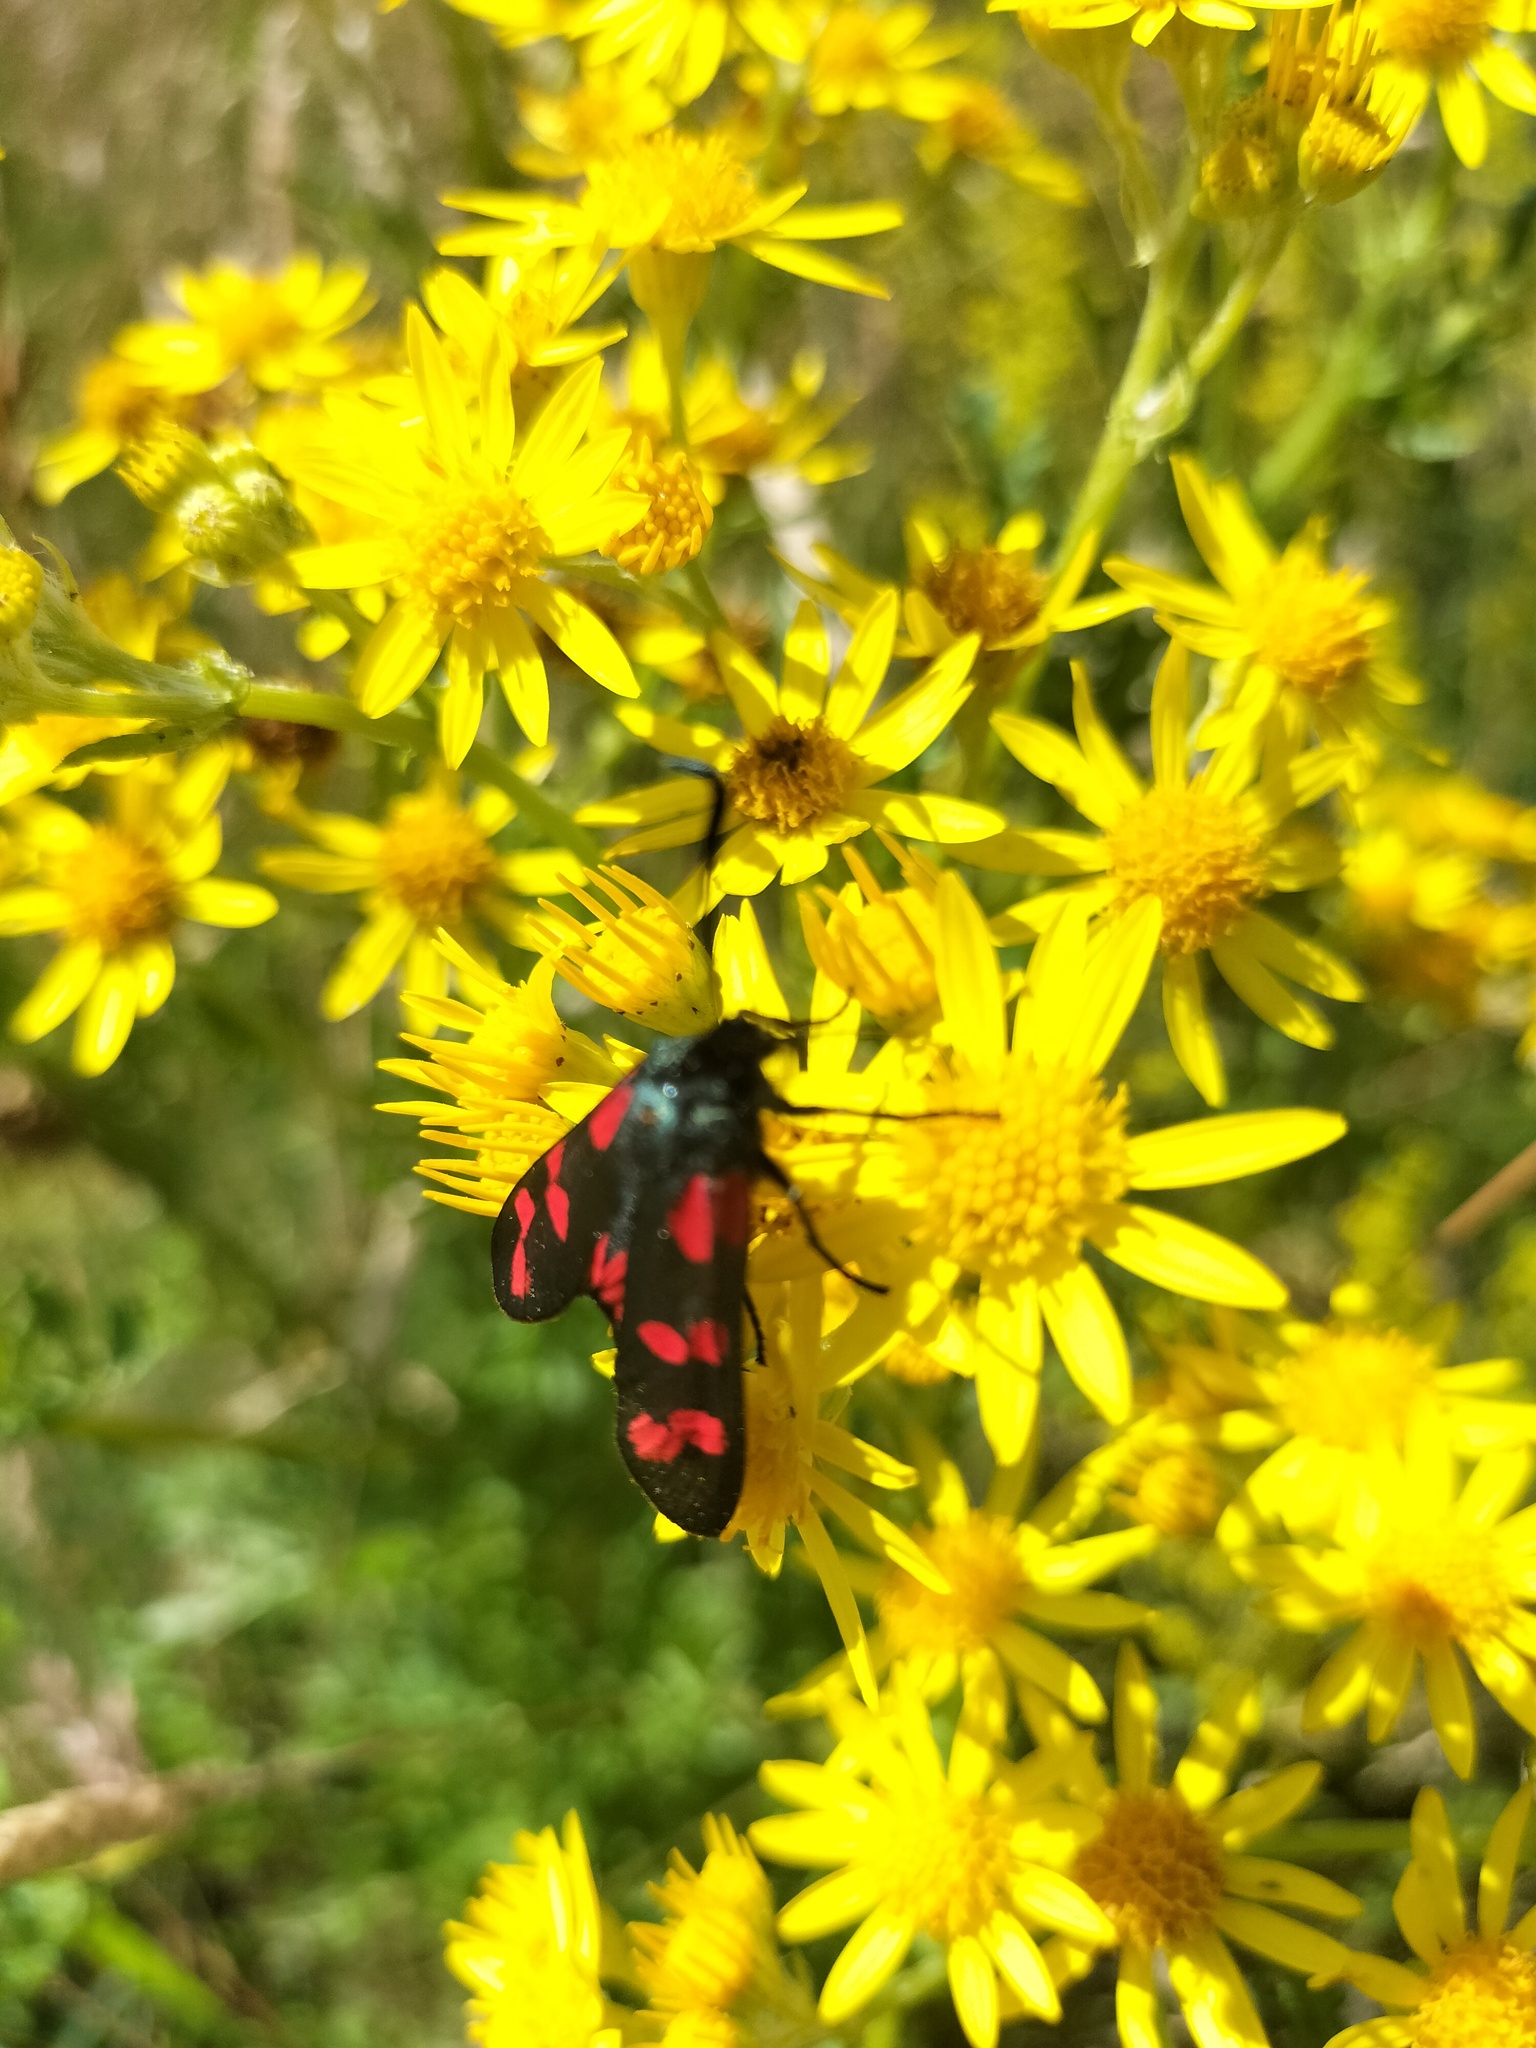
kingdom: Animalia
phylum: Arthropoda
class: Insecta
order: Lepidoptera
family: Zygaenidae
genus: Zygaena
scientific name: Zygaena filipendulae
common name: Six-spot burnet
